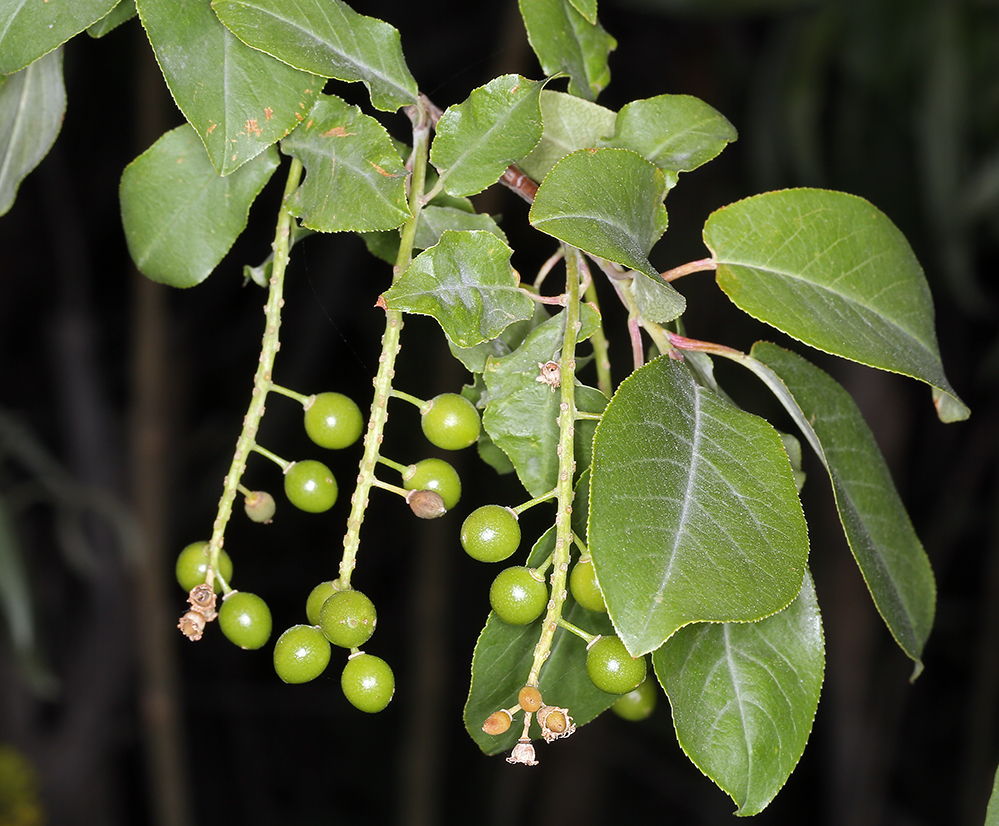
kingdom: Plantae
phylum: Tracheophyta
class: Magnoliopsida
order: Rosales
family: Rosaceae
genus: Prunus
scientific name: Prunus virginiana
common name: Chokecherry
